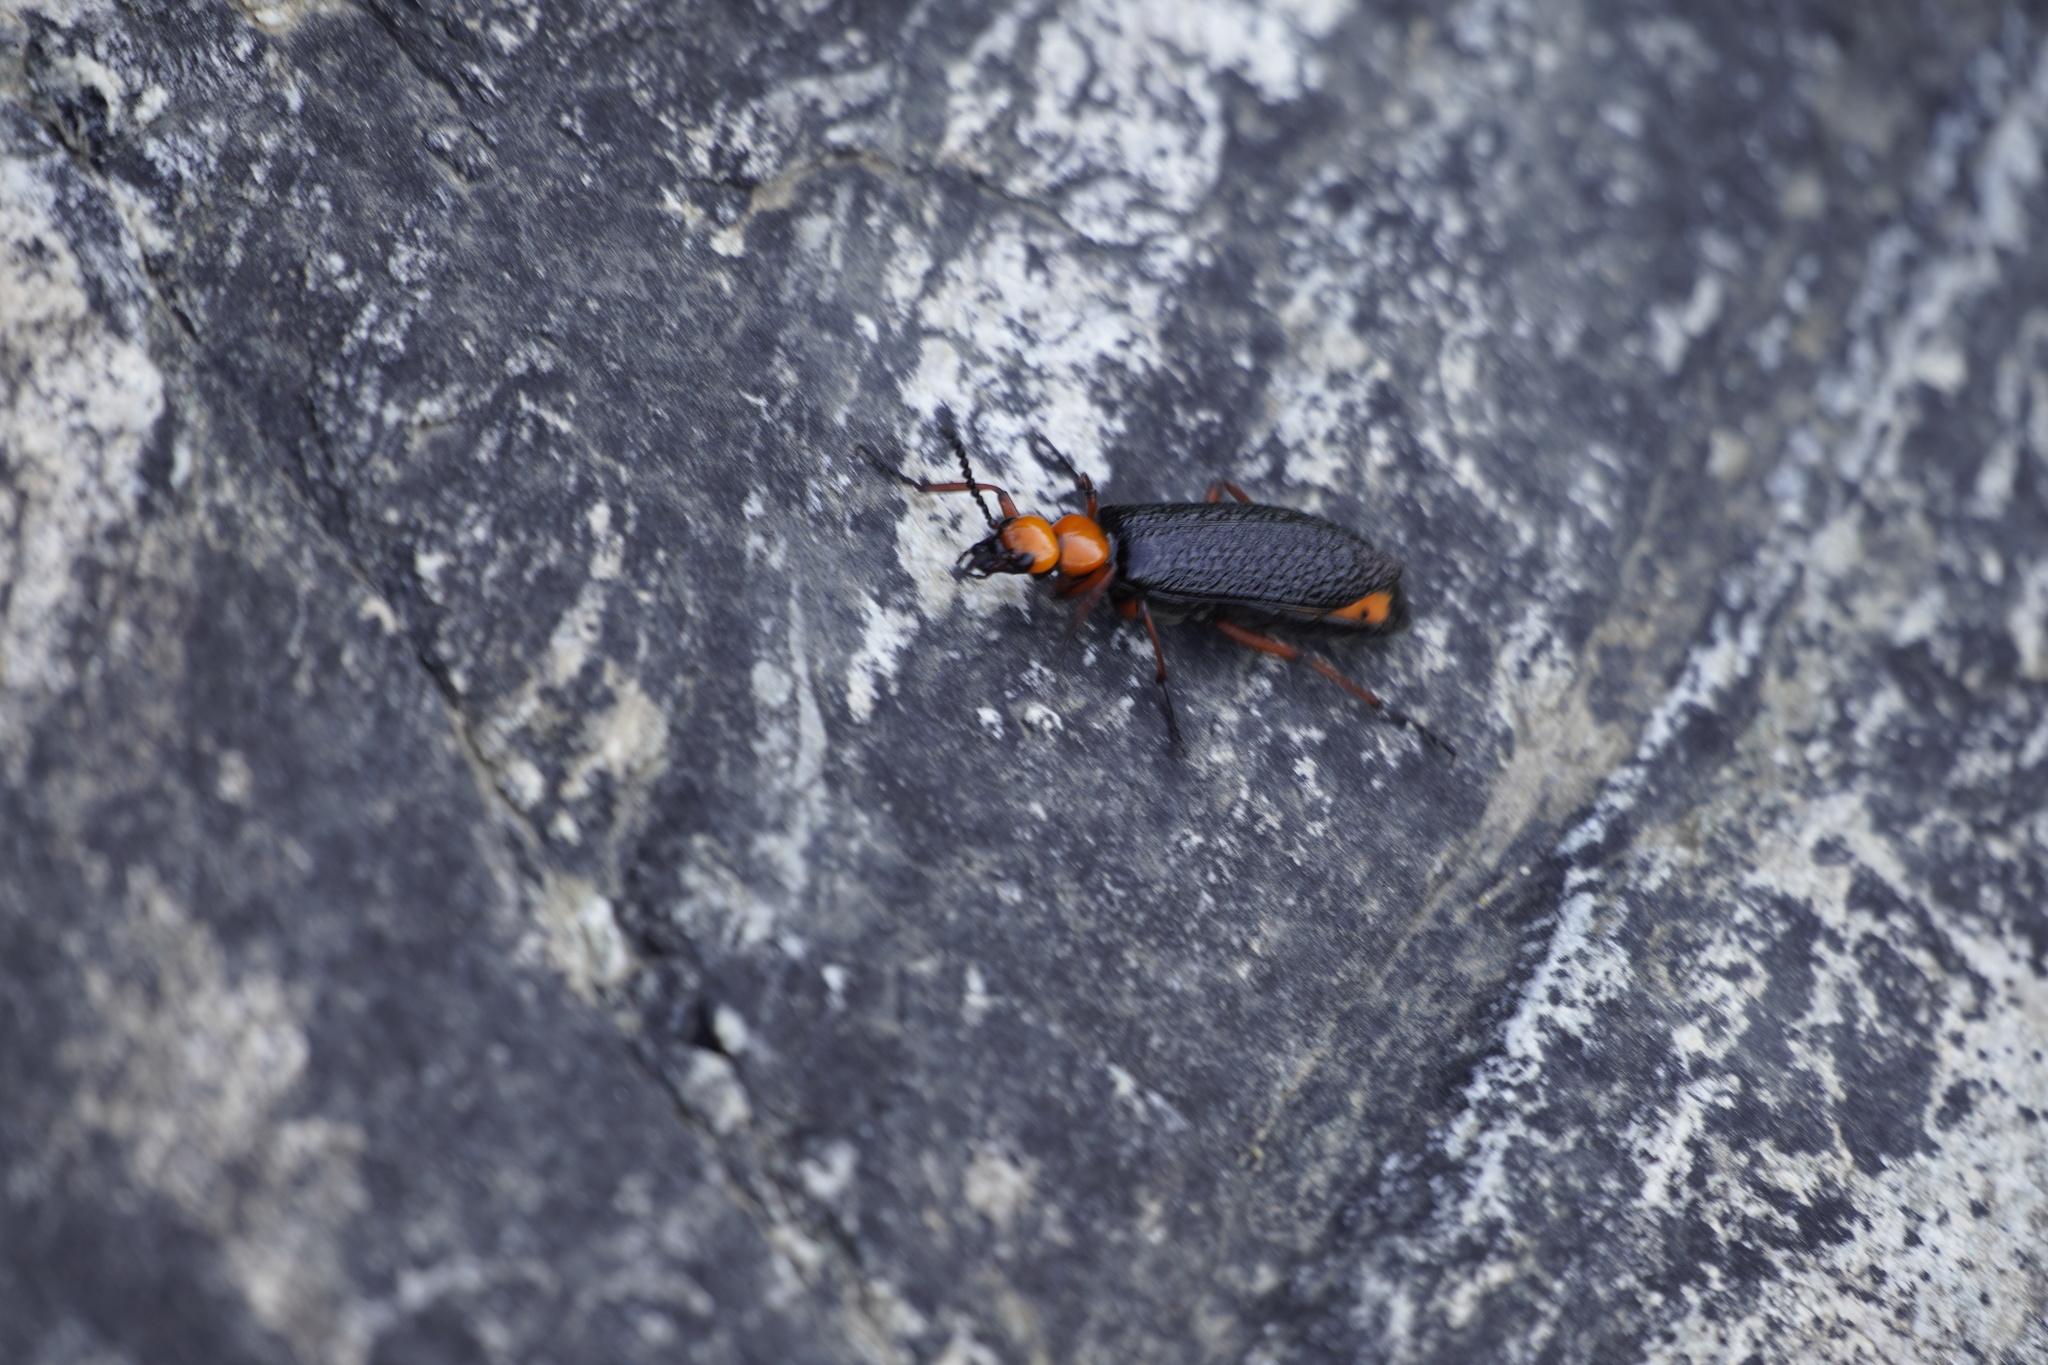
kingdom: Animalia
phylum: Arthropoda
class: Insecta
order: Coleoptera
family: Meloidae
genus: Lytta
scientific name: Lytta magister
